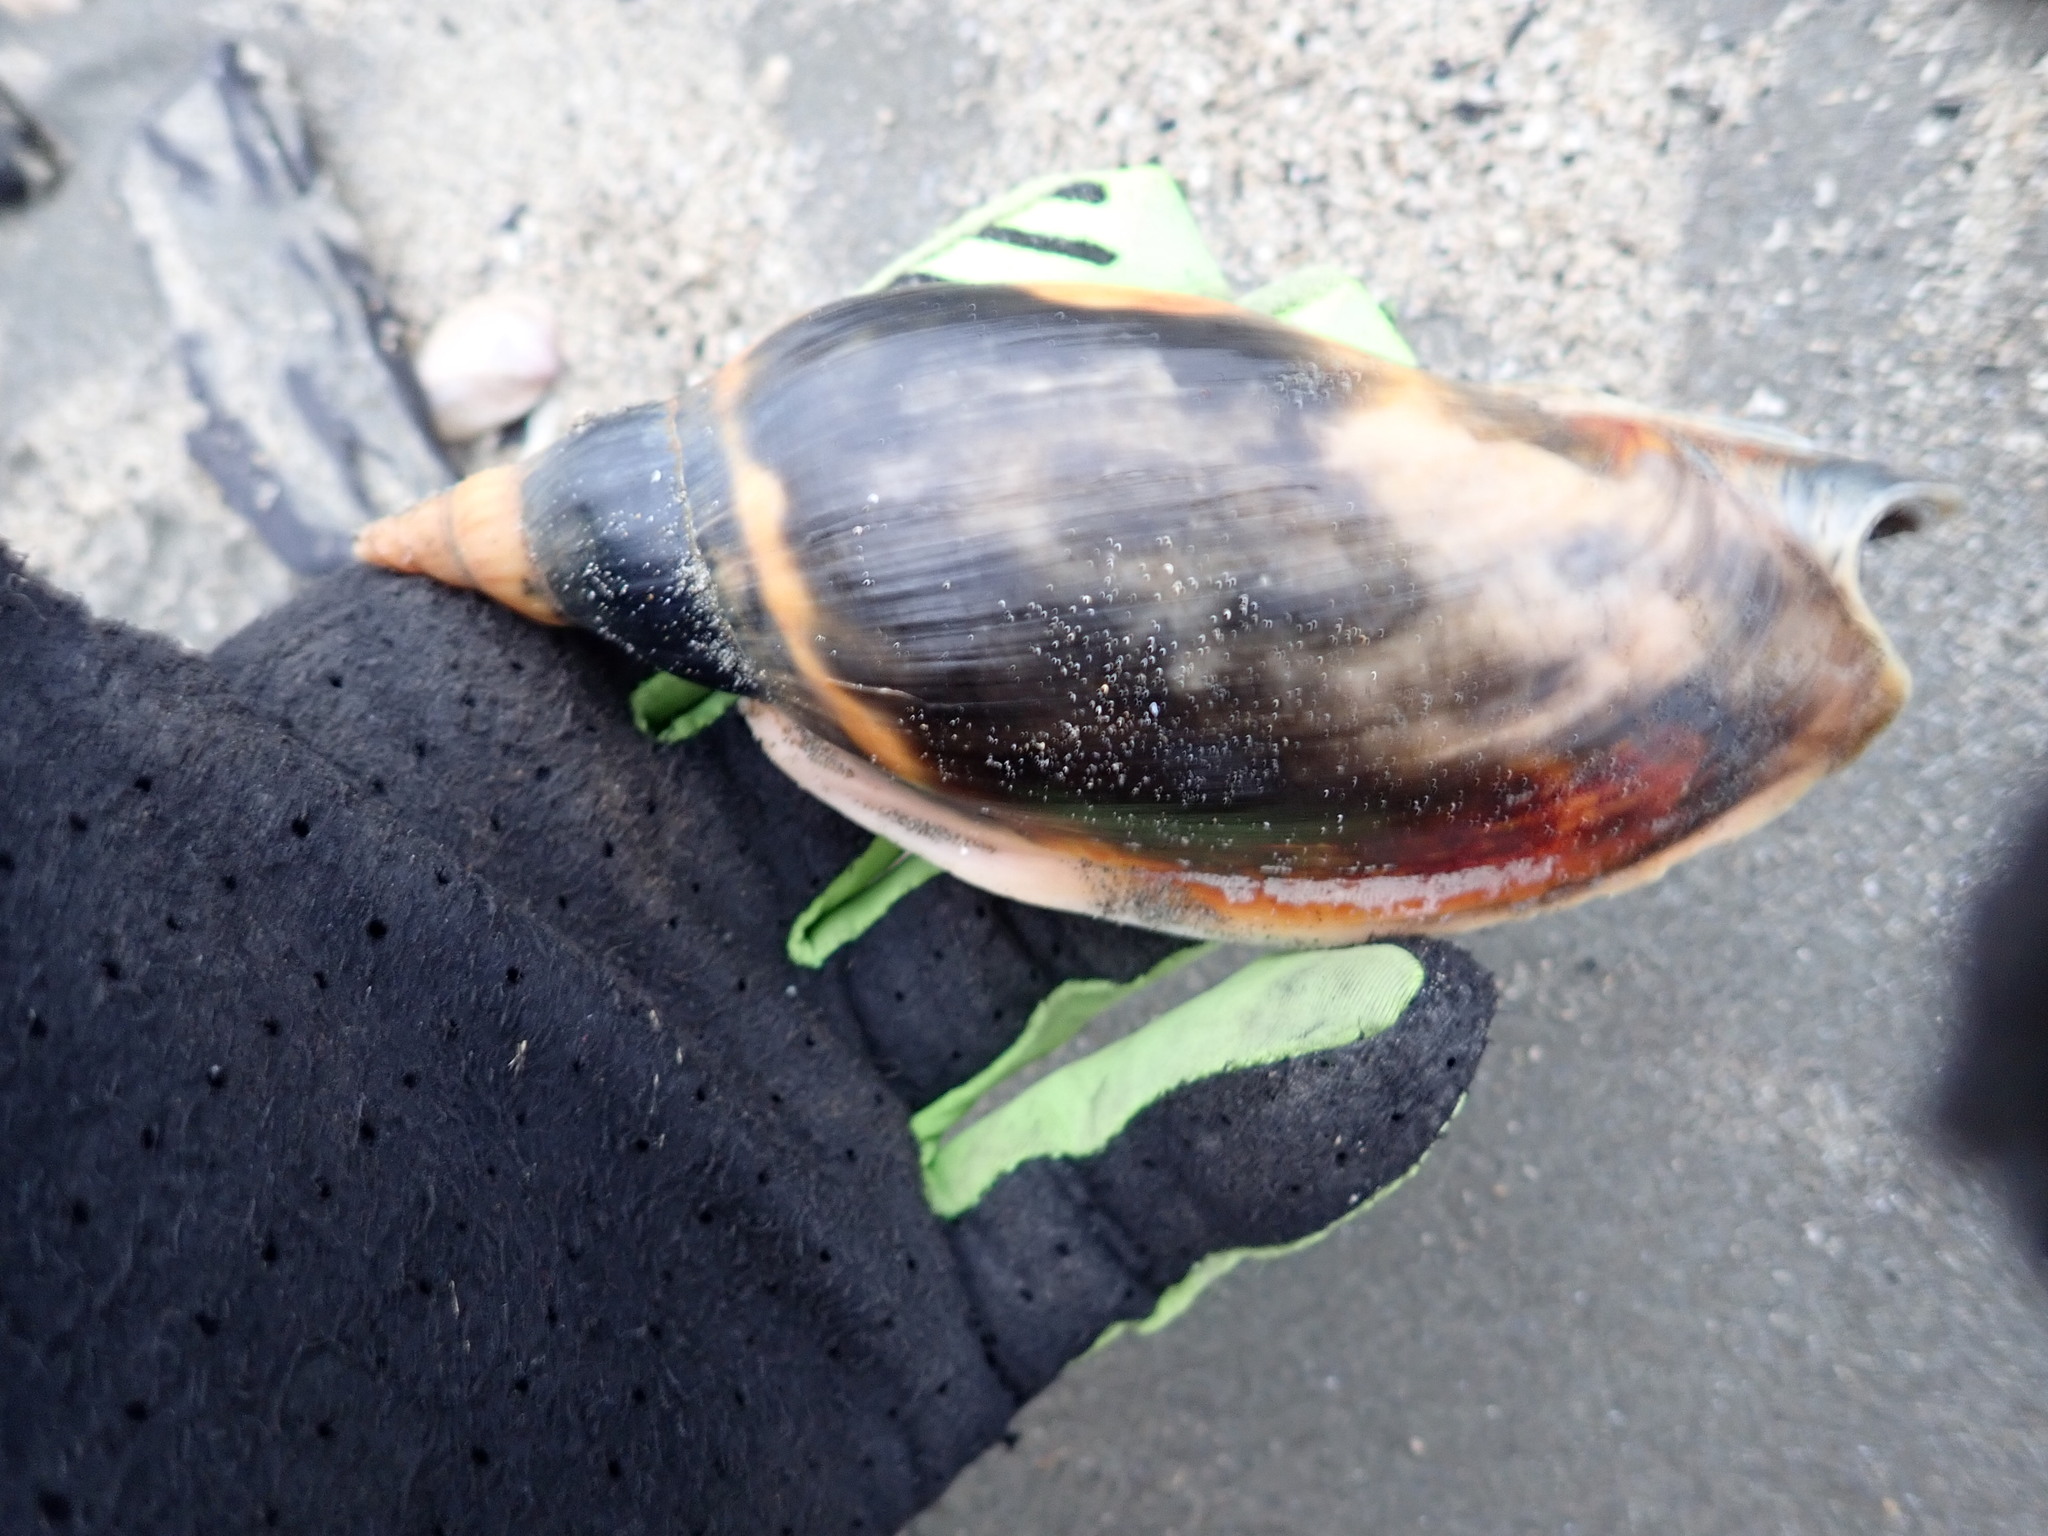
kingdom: Animalia
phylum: Mollusca
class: Gastropoda
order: Neogastropoda
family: Volutidae
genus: Alcithoe
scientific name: Alcithoe arabica
